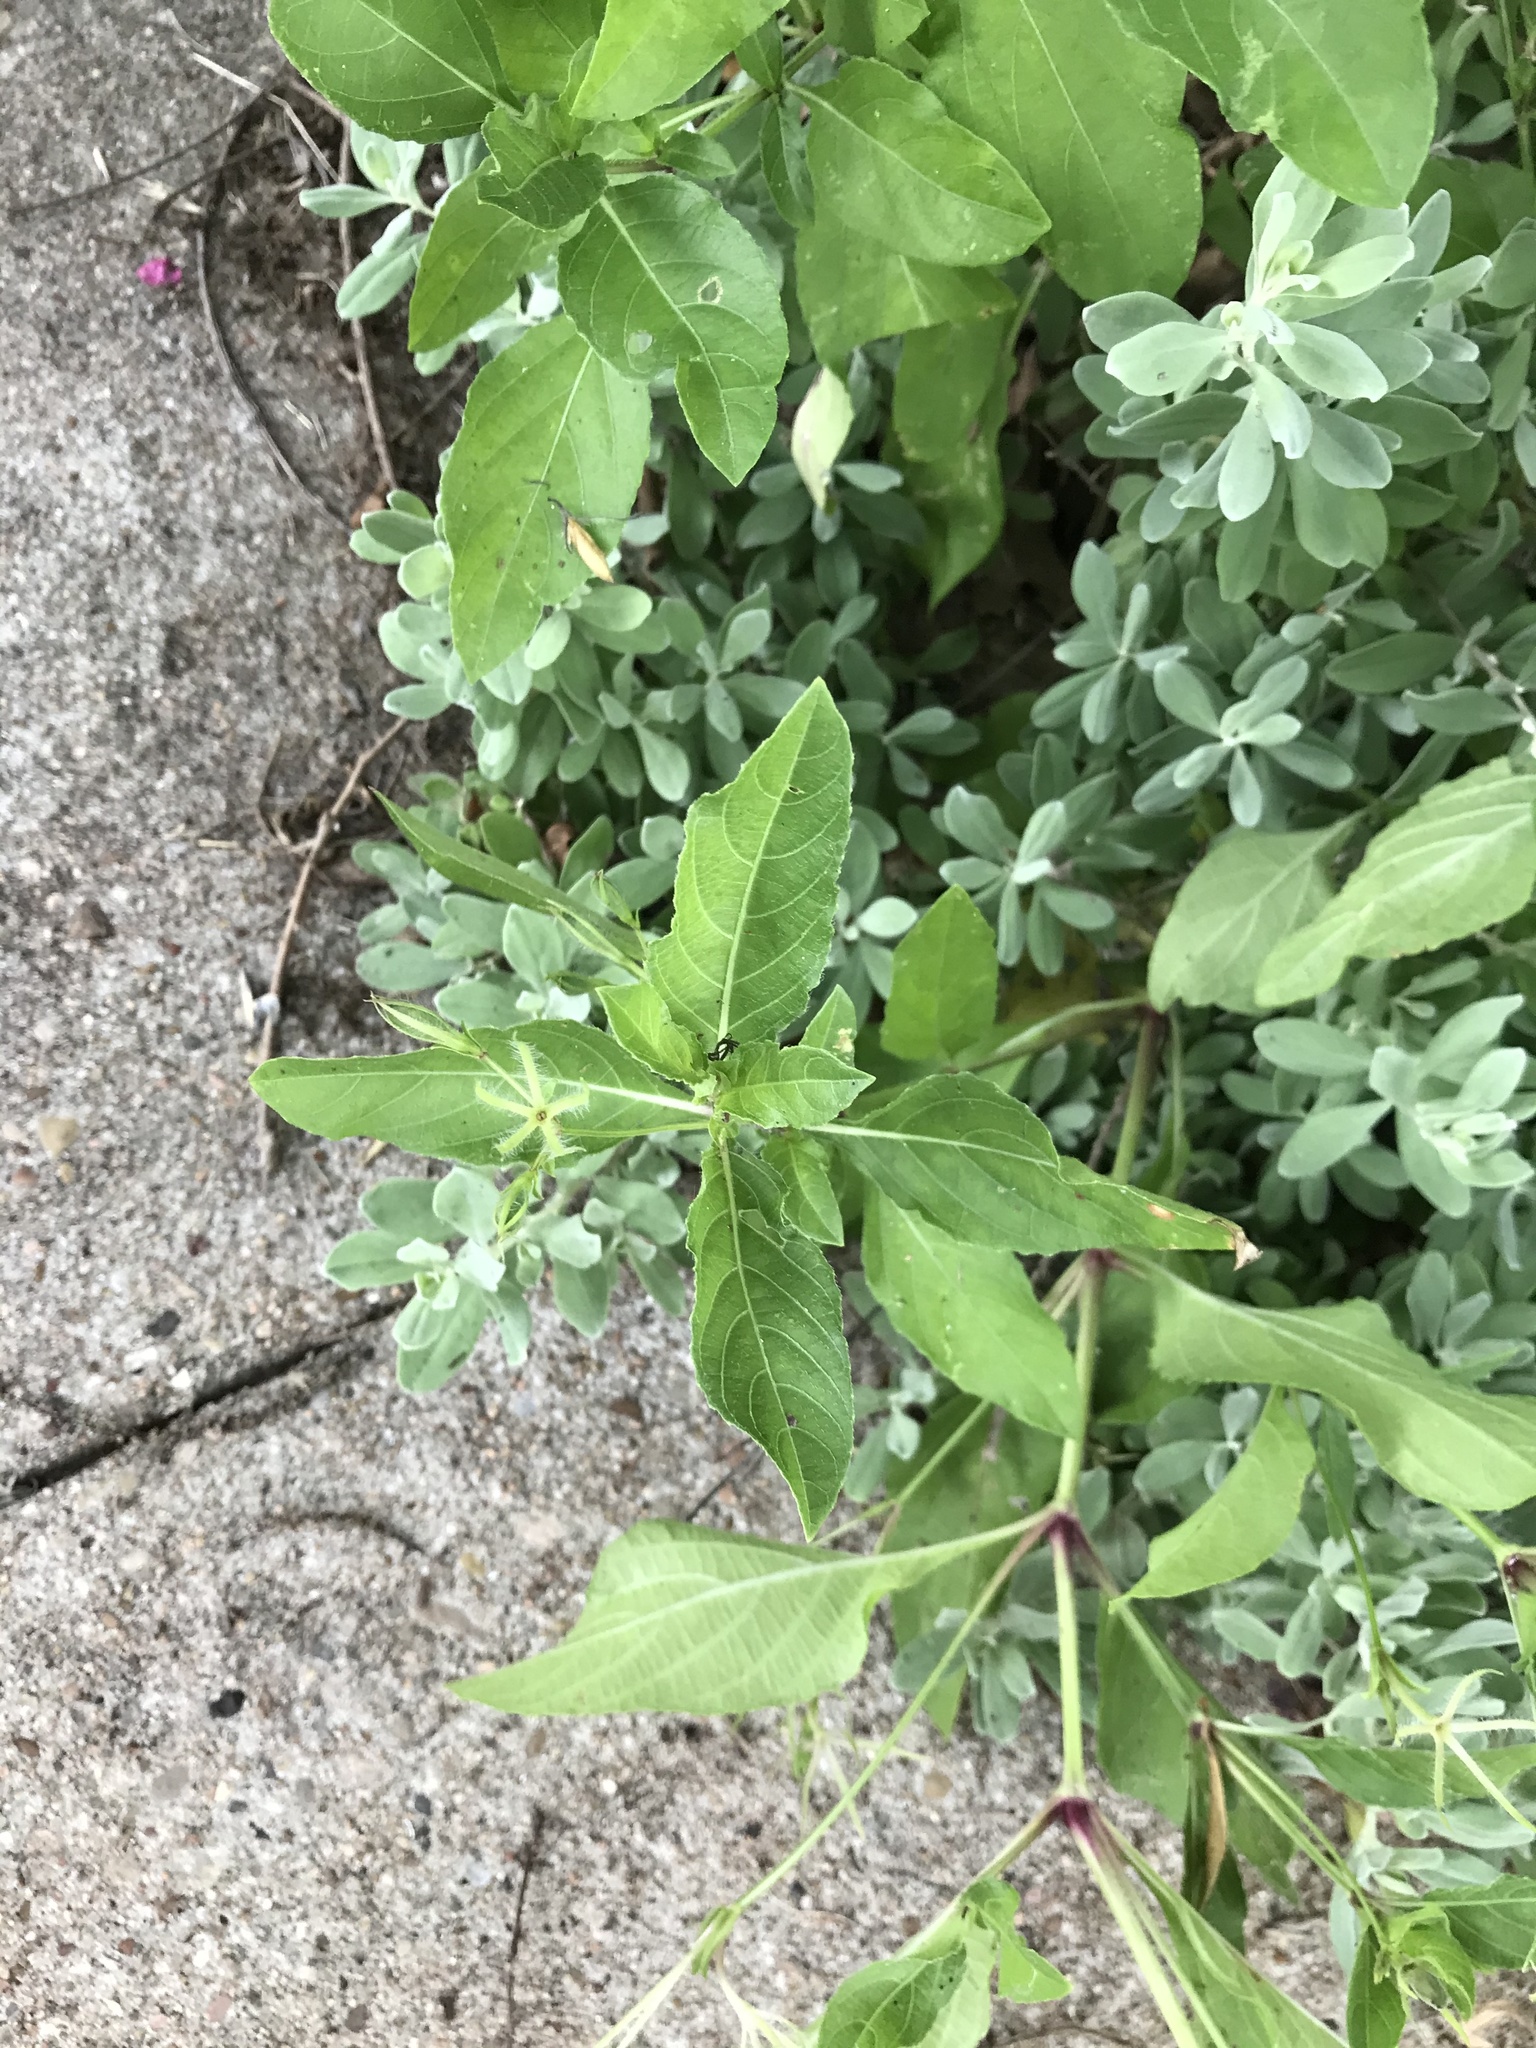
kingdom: Plantae
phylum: Tracheophyta
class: Magnoliopsida
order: Lamiales
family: Acanthaceae
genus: Ruellia
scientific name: Ruellia ciliatiflora
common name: Hairyflower wild petunia
